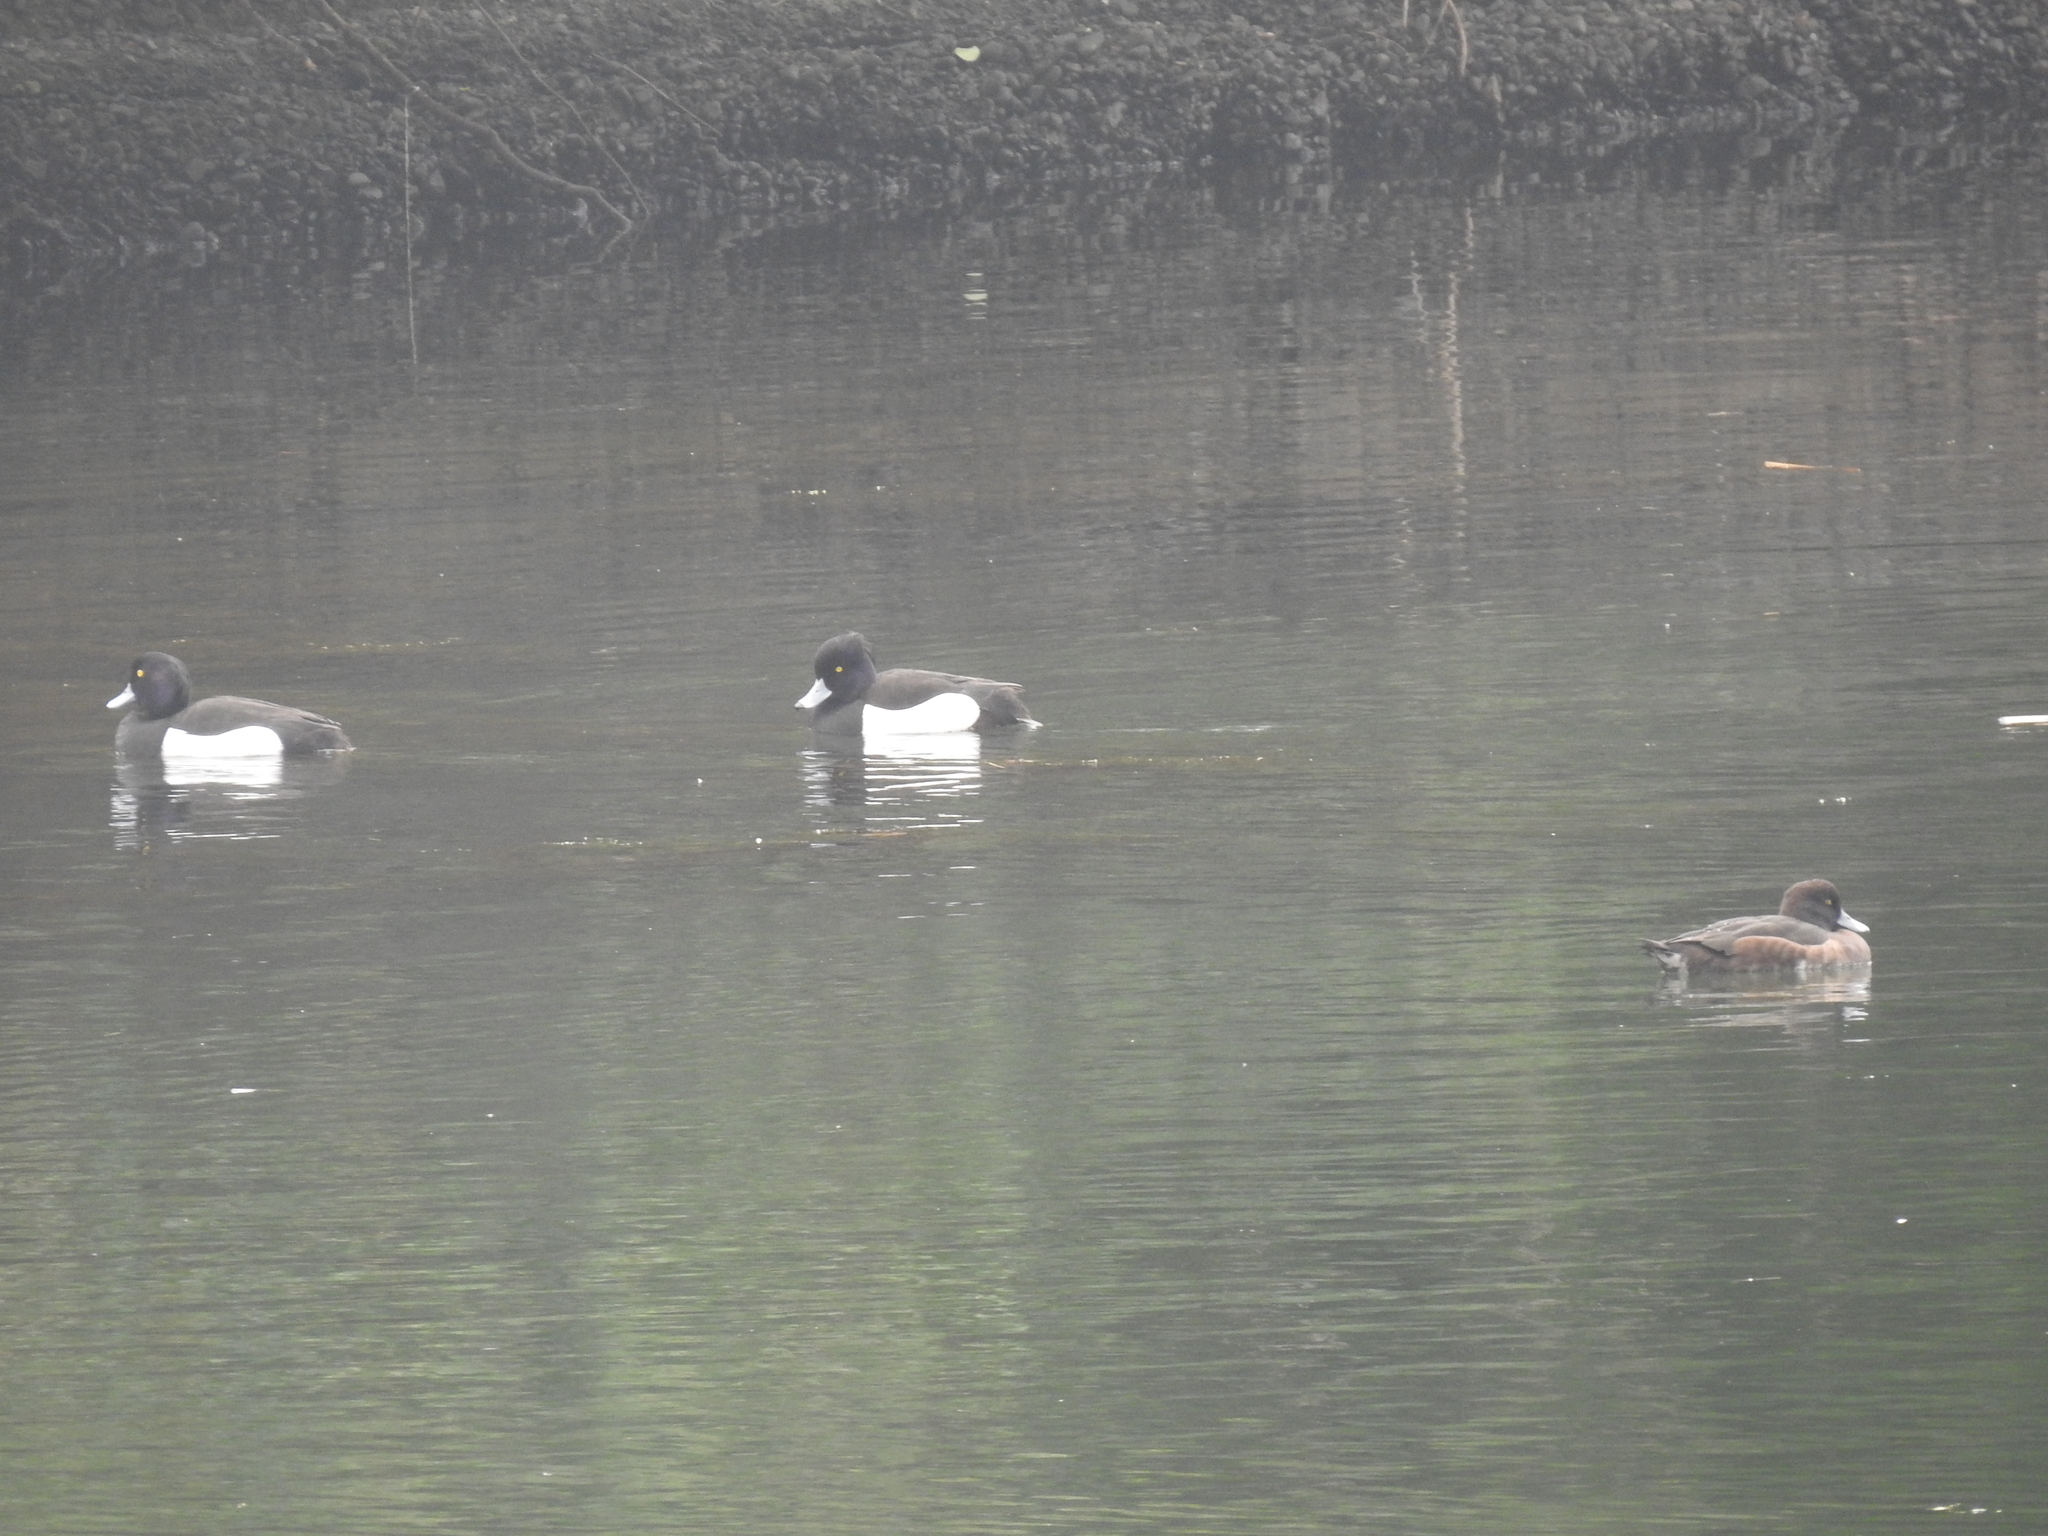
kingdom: Animalia
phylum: Chordata
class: Aves
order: Anseriformes
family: Anatidae
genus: Aythya
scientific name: Aythya fuligula
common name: Tufted duck
